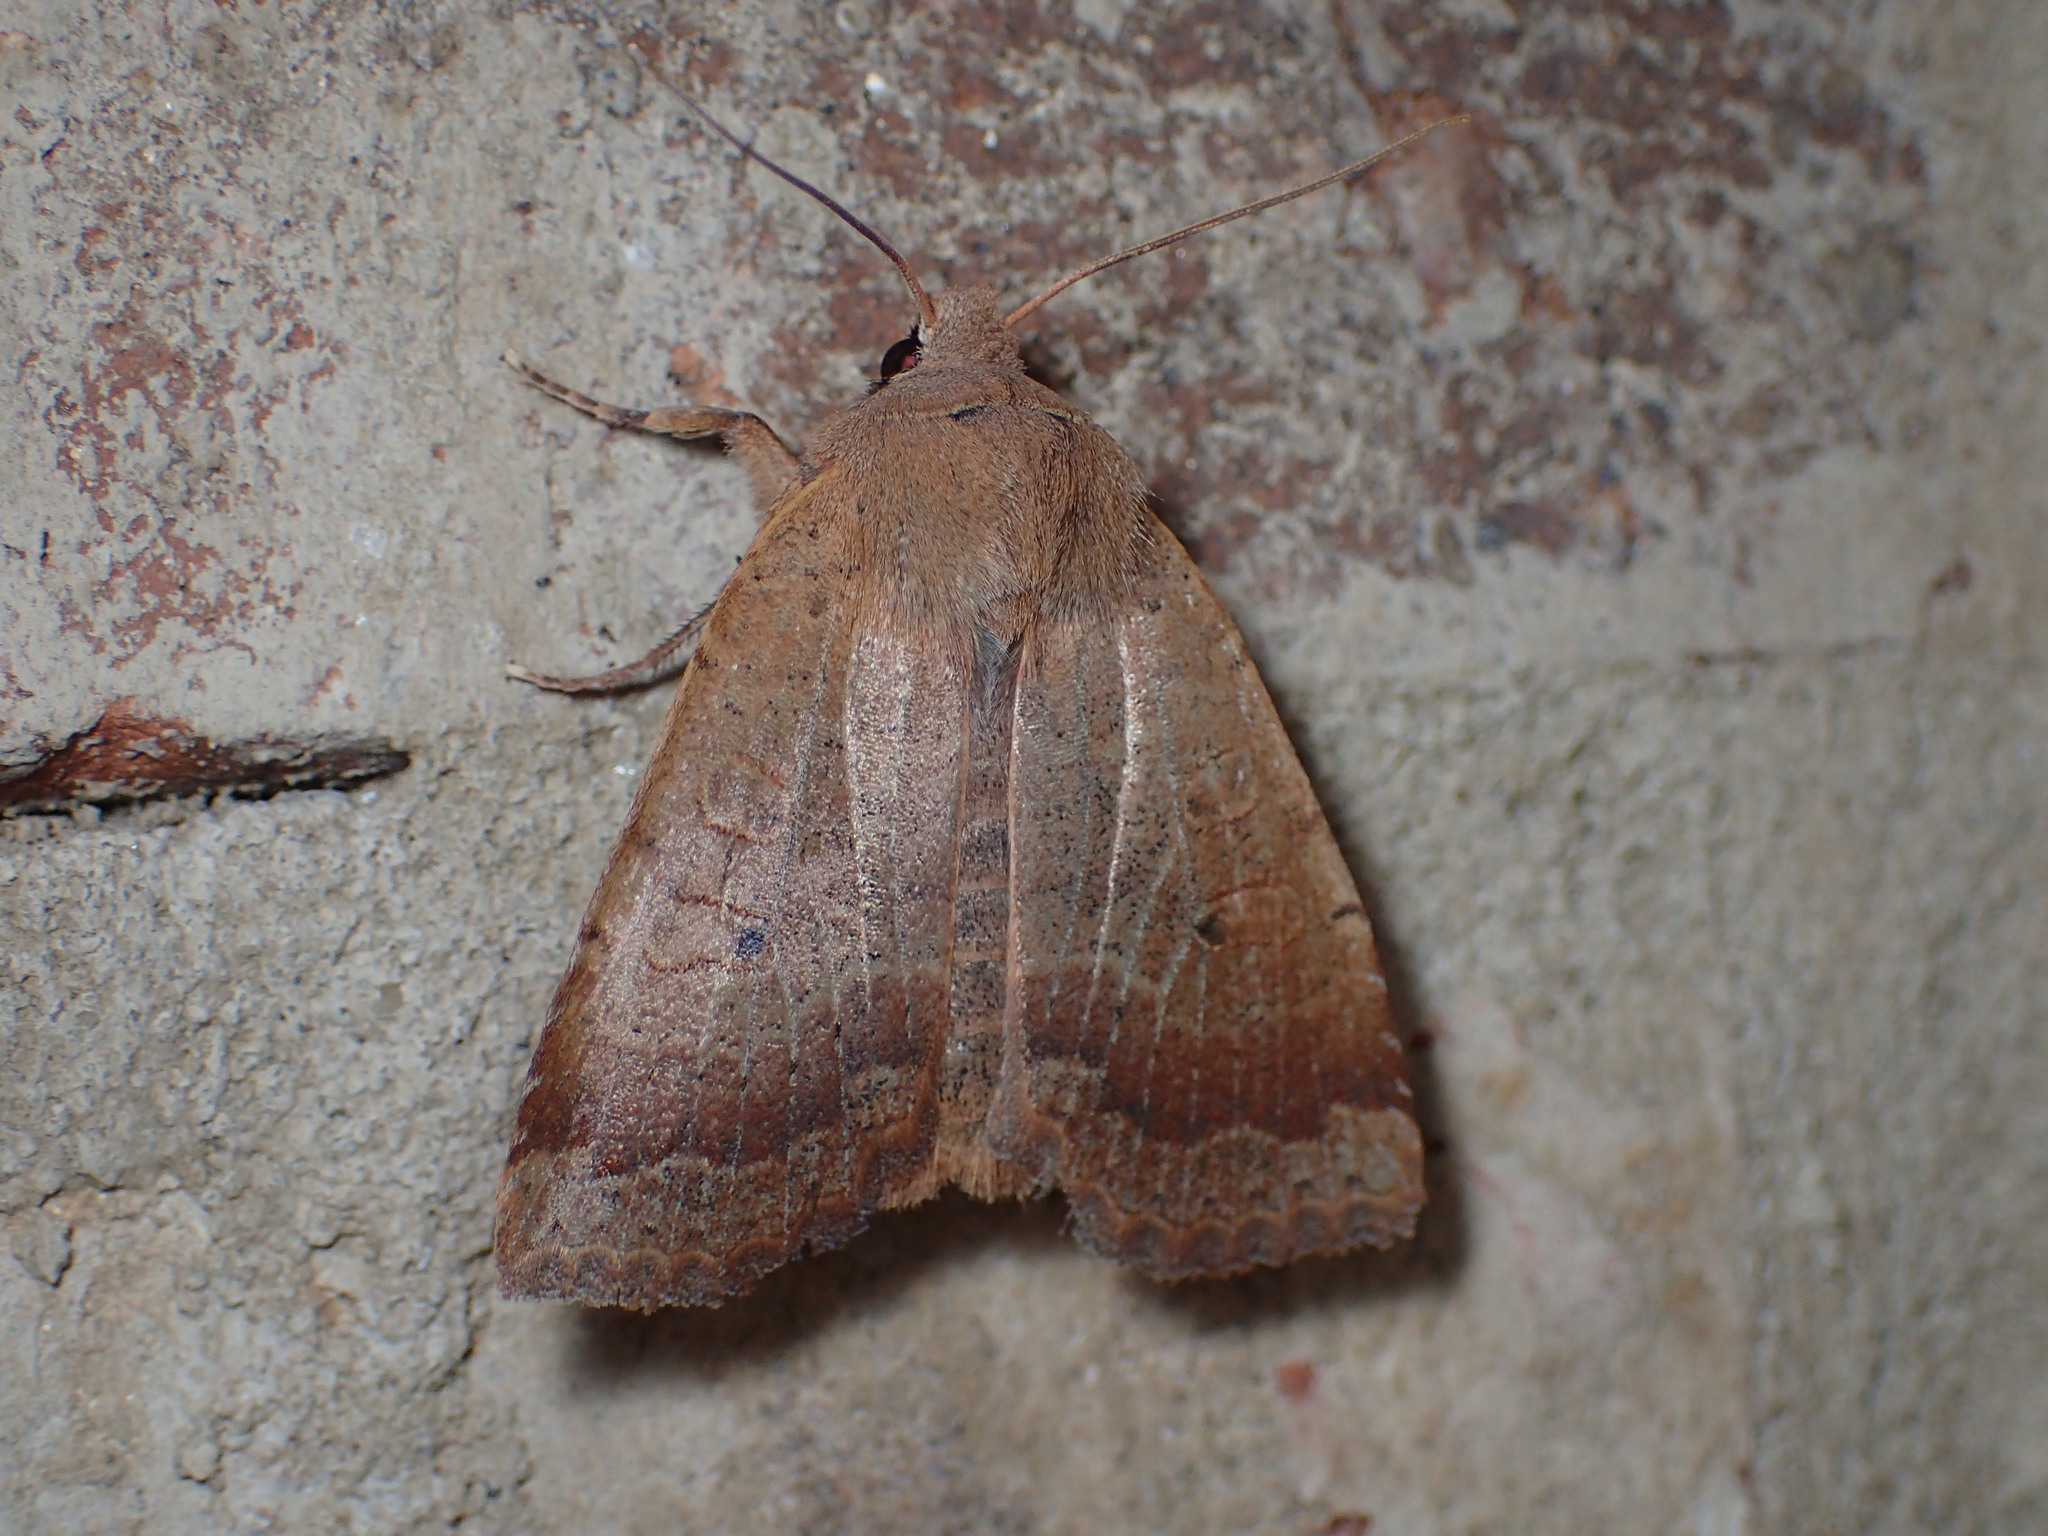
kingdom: Animalia
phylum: Arthropoda
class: Insecta
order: Lepidoptera
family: Noctuidae
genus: Sericaglaea
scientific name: Sericaglaea signata
